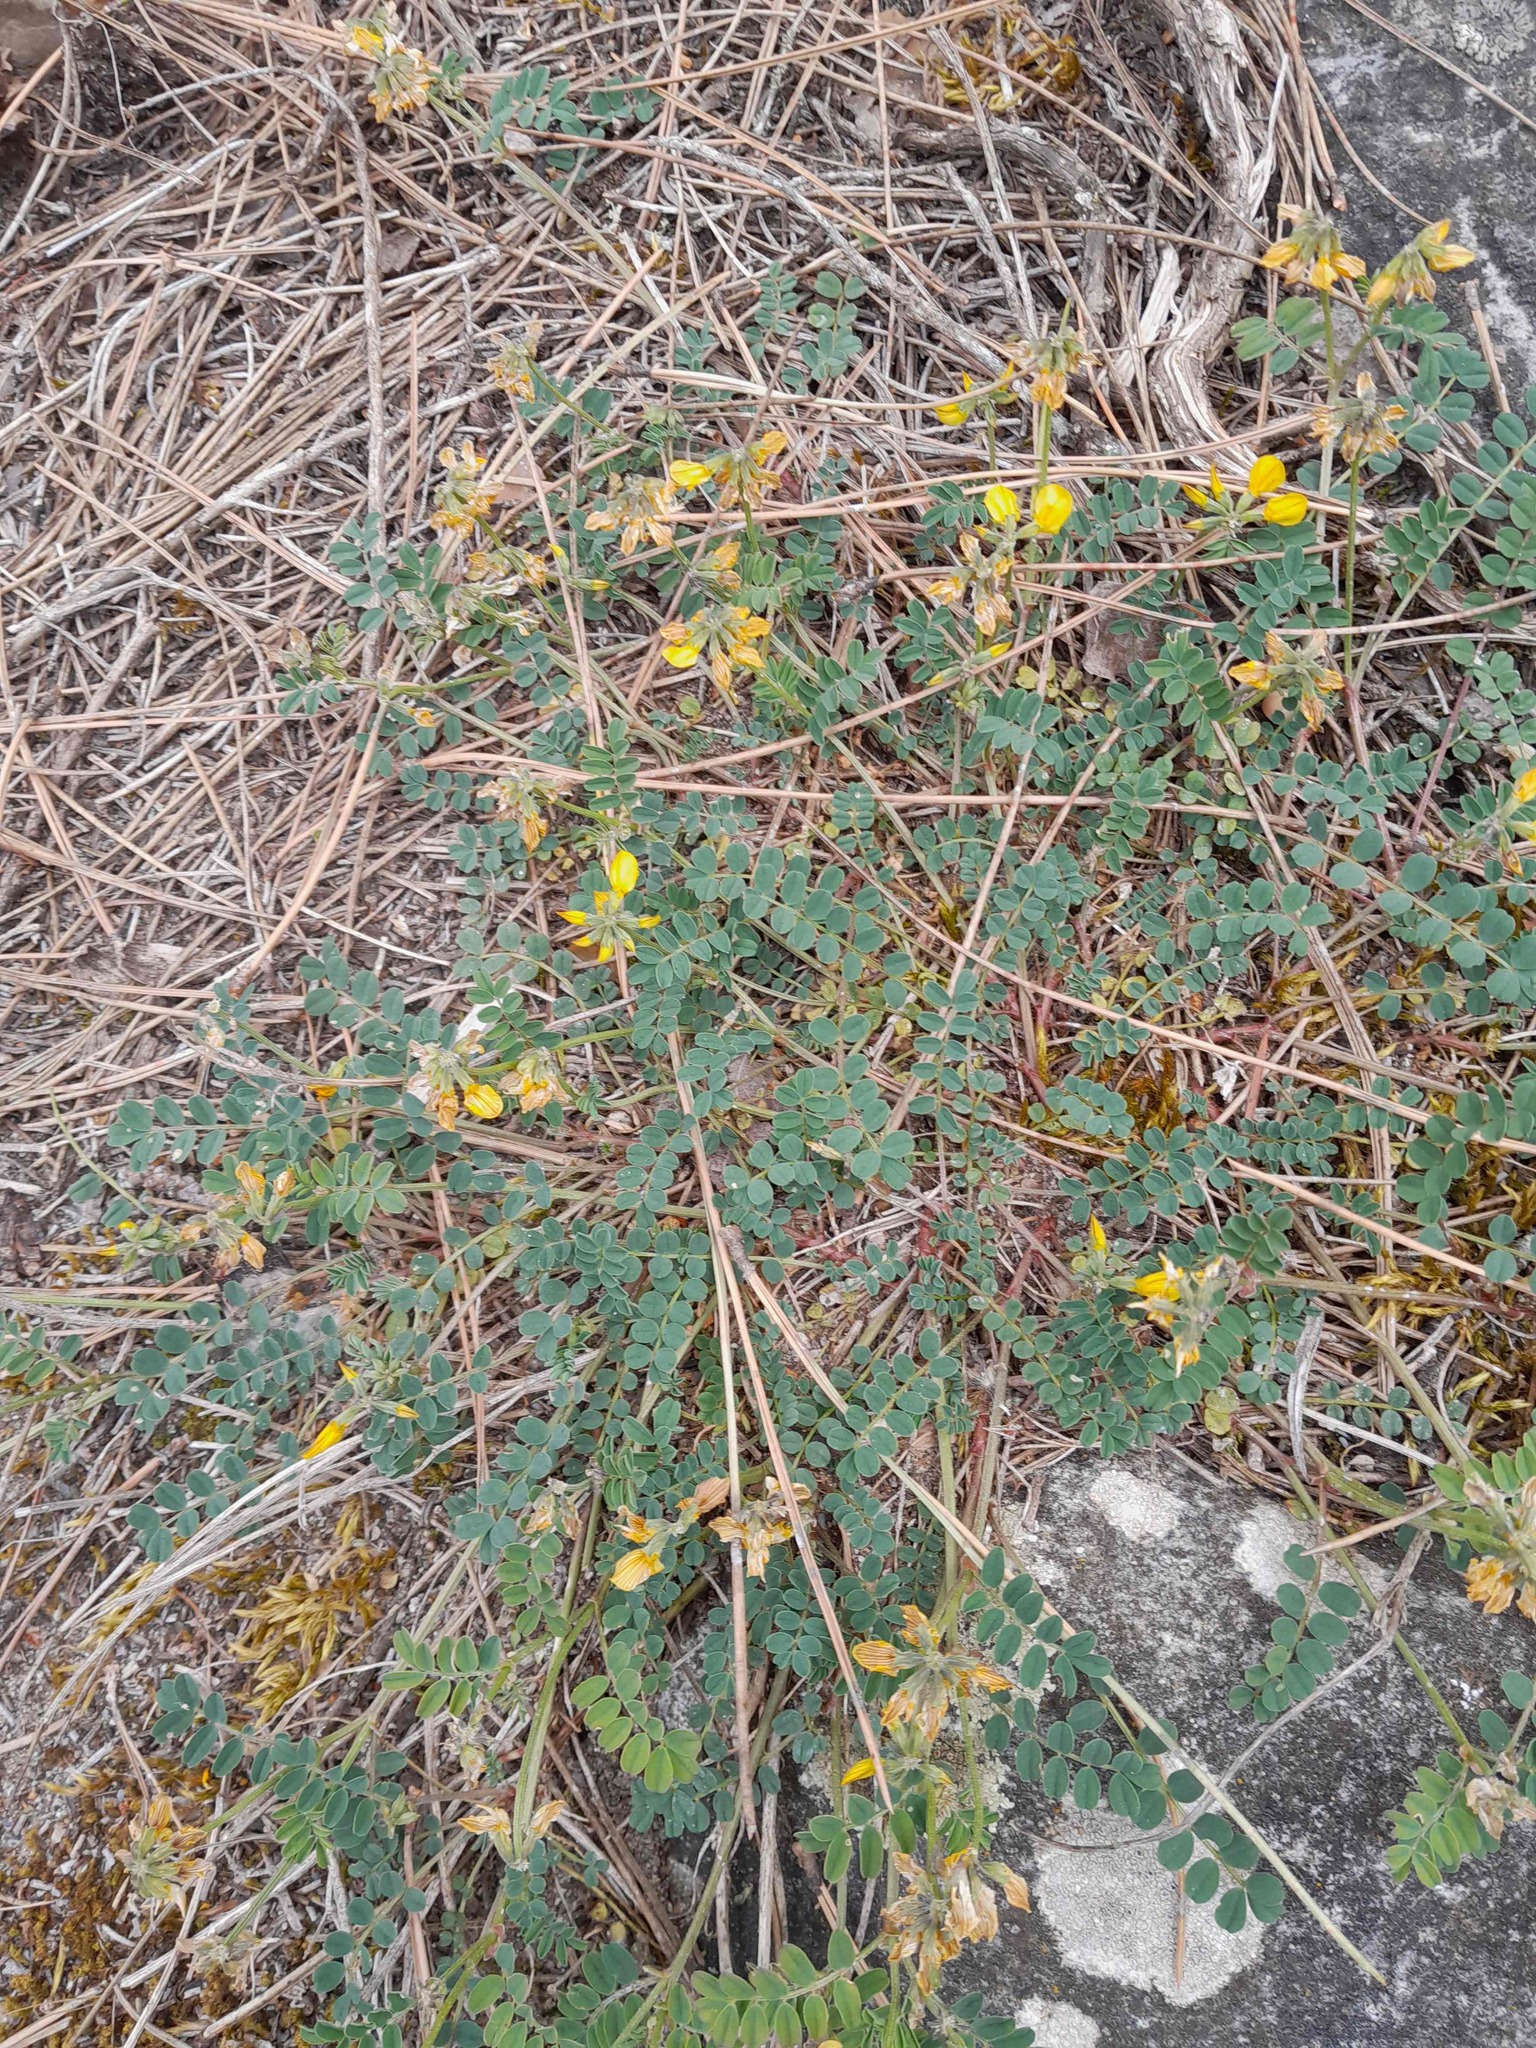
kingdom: Plantae
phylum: Tracheophyta
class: Magnoliopsida
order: Fabales
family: Fabaceae
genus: Hippocrepis
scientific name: Hippocrepis comosa
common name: Horseshoe vetch
